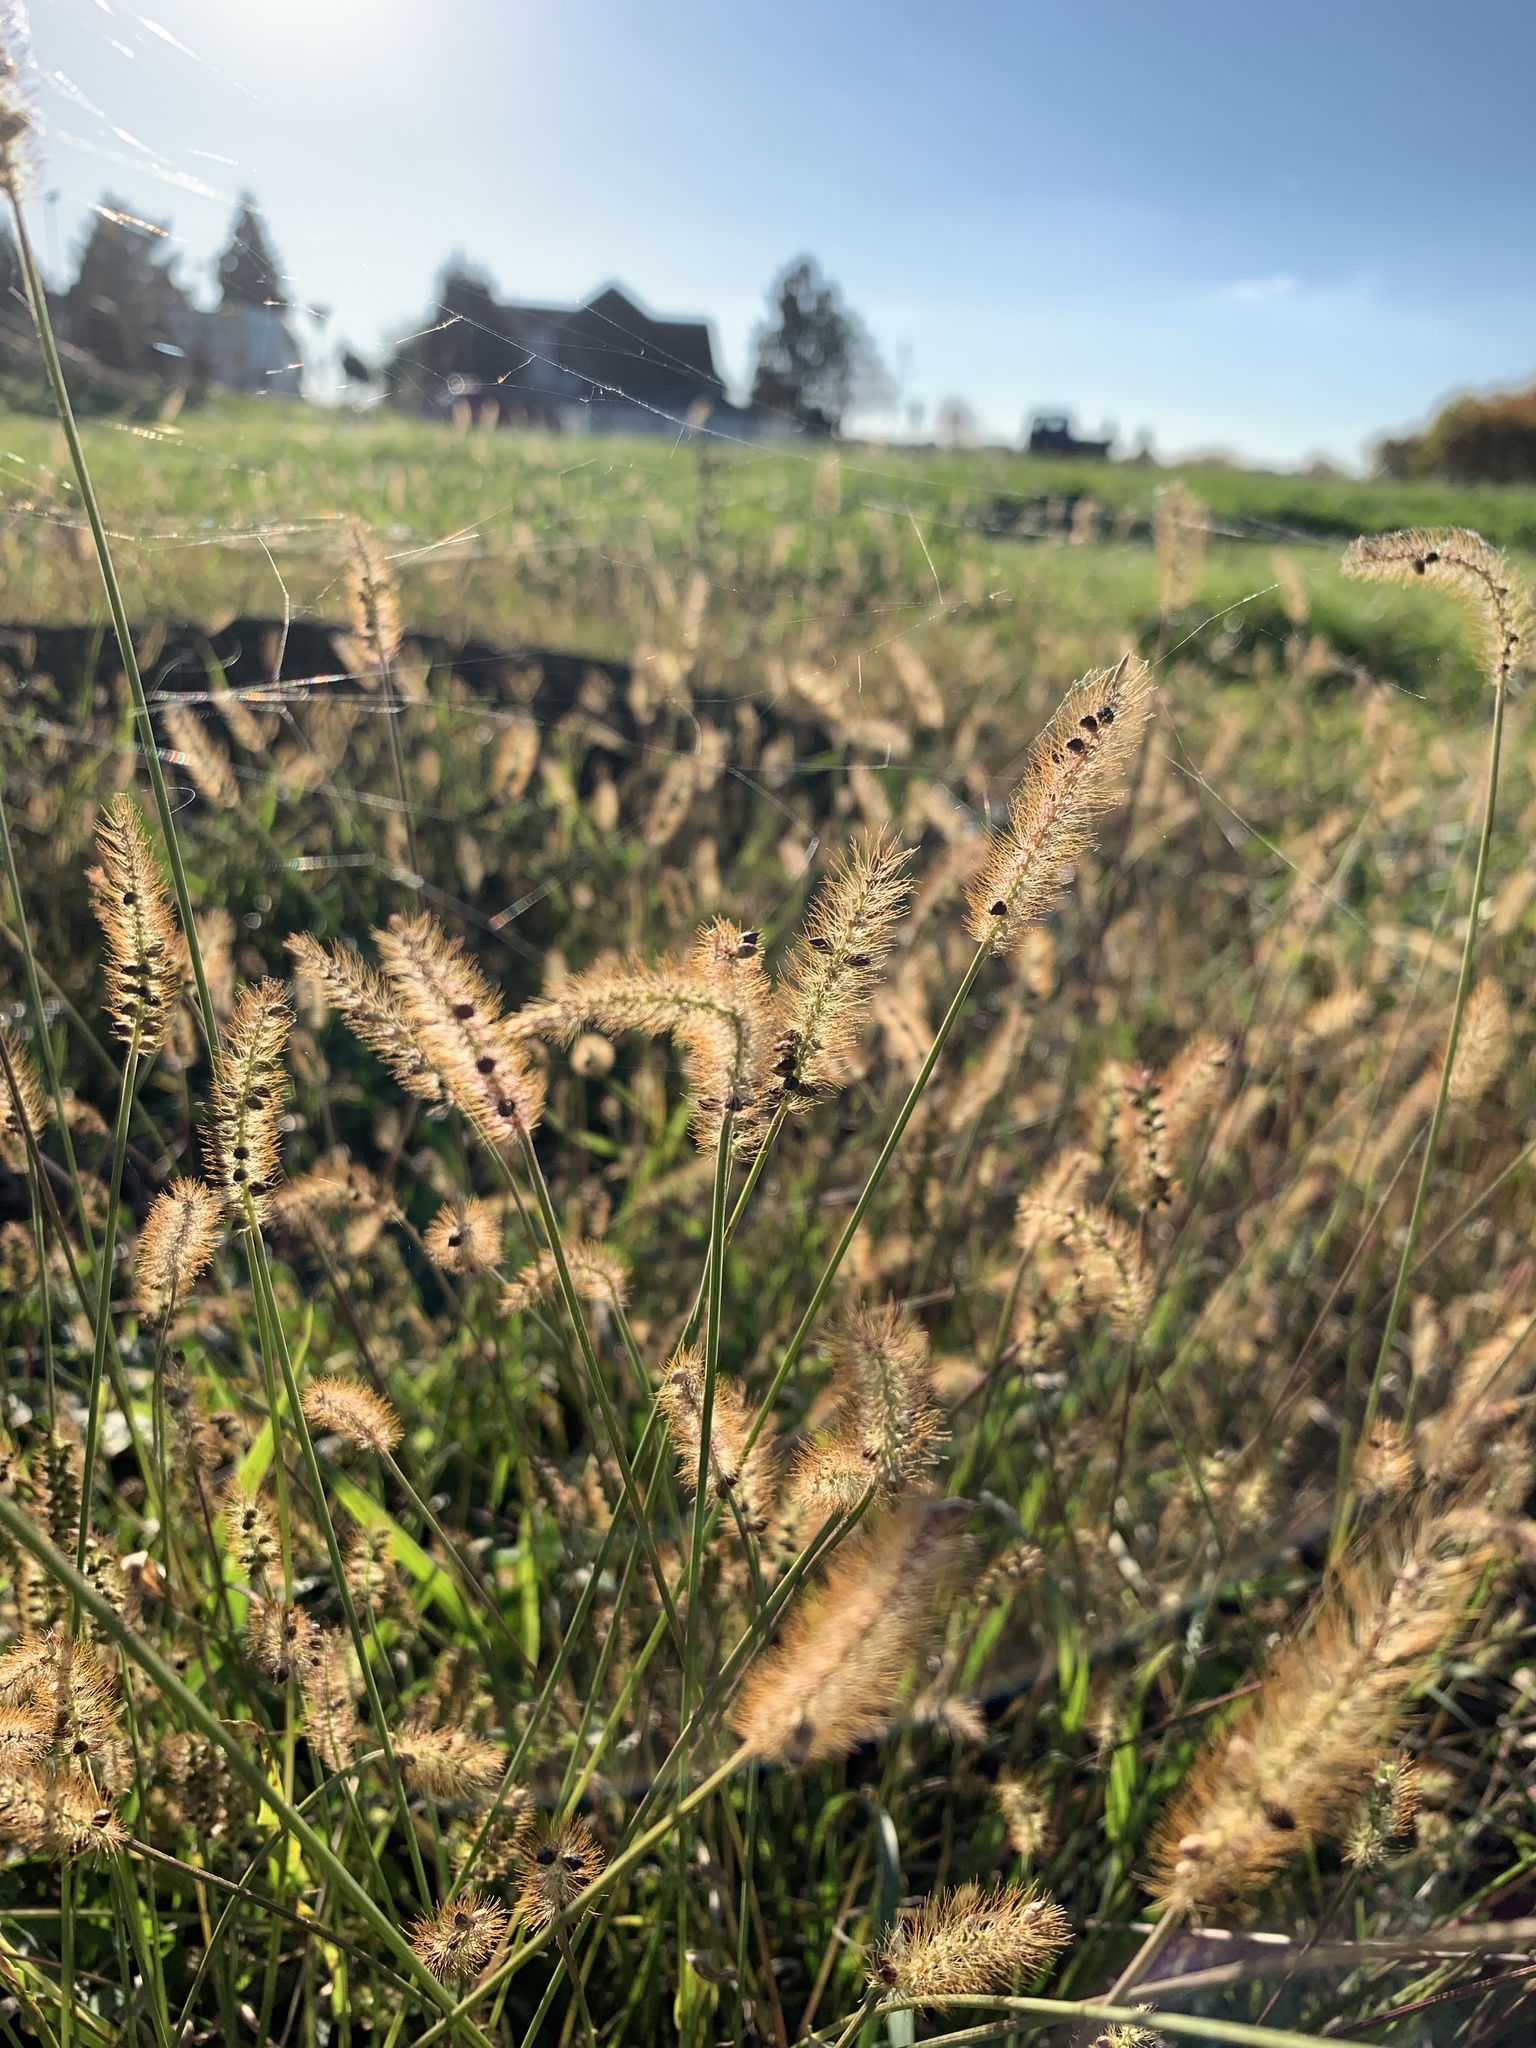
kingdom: Plantae
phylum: Tracheophyta
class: Liliopsida
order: Poales
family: Poaceae
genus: Setaria
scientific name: Setaria pumila
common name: Yellow bristle-grass
